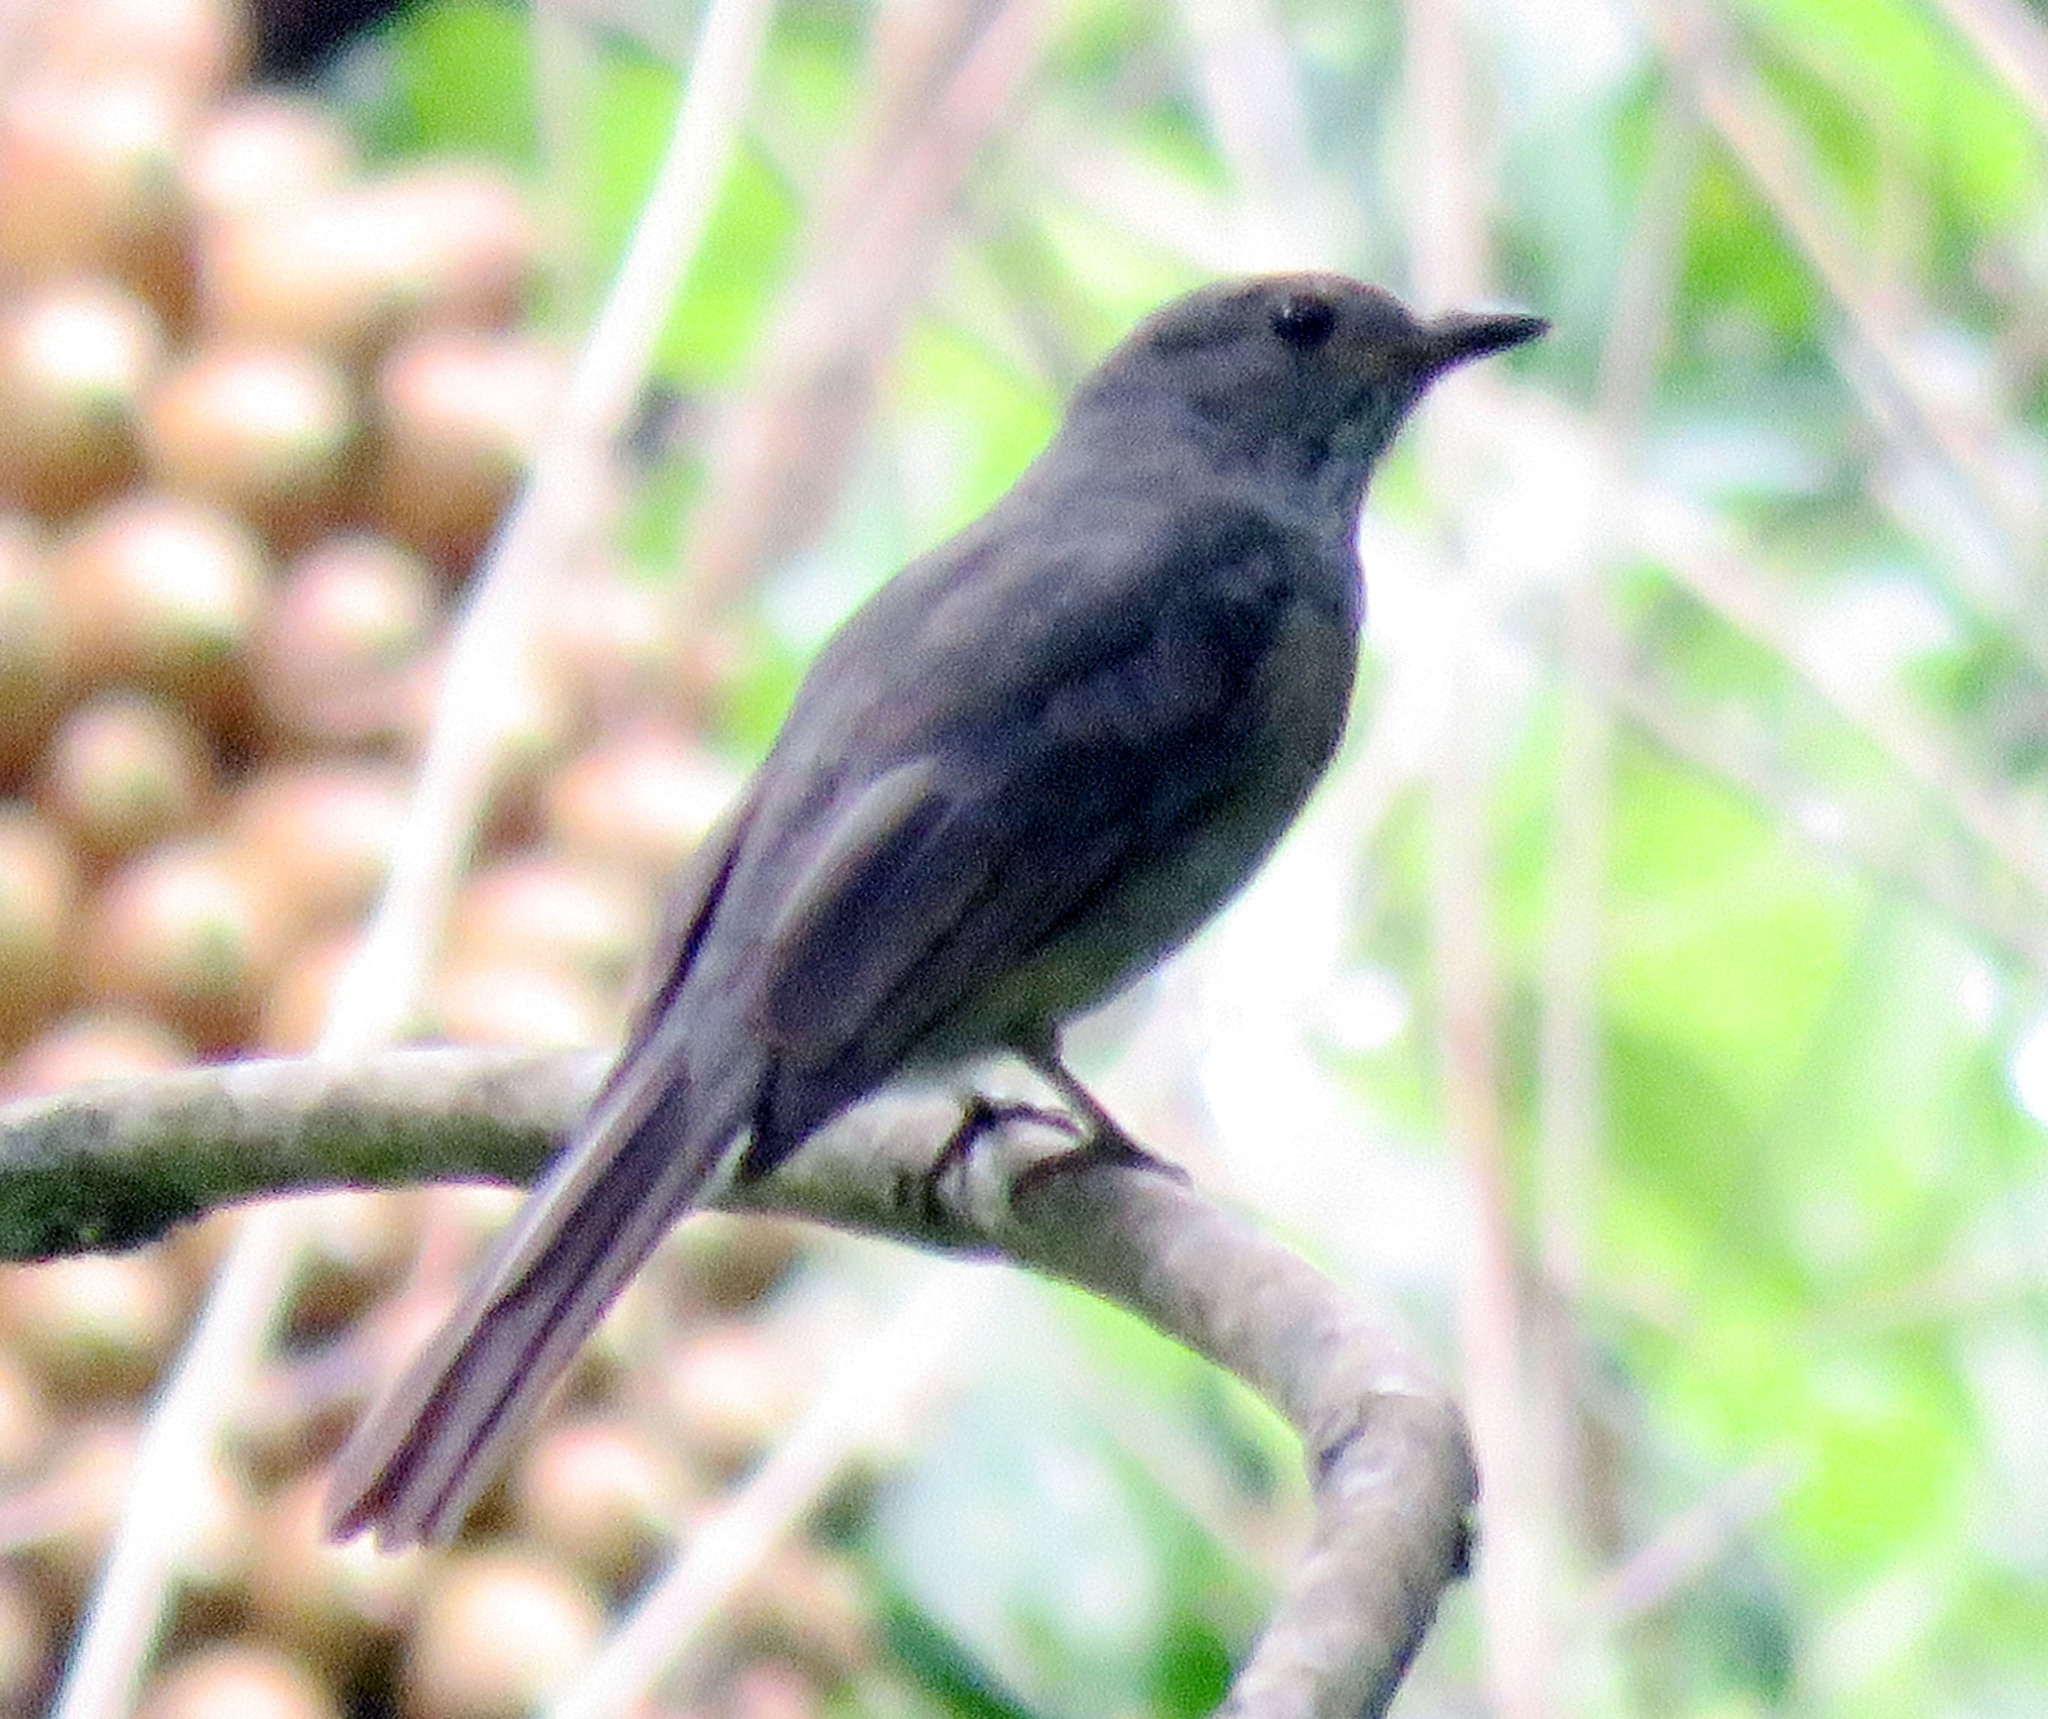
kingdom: Animalia
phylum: Chordata
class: Aves
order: Passeriformes
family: Cotingidae
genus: Lipaugus
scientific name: Lipaugus vociferans
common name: Screaming piha
